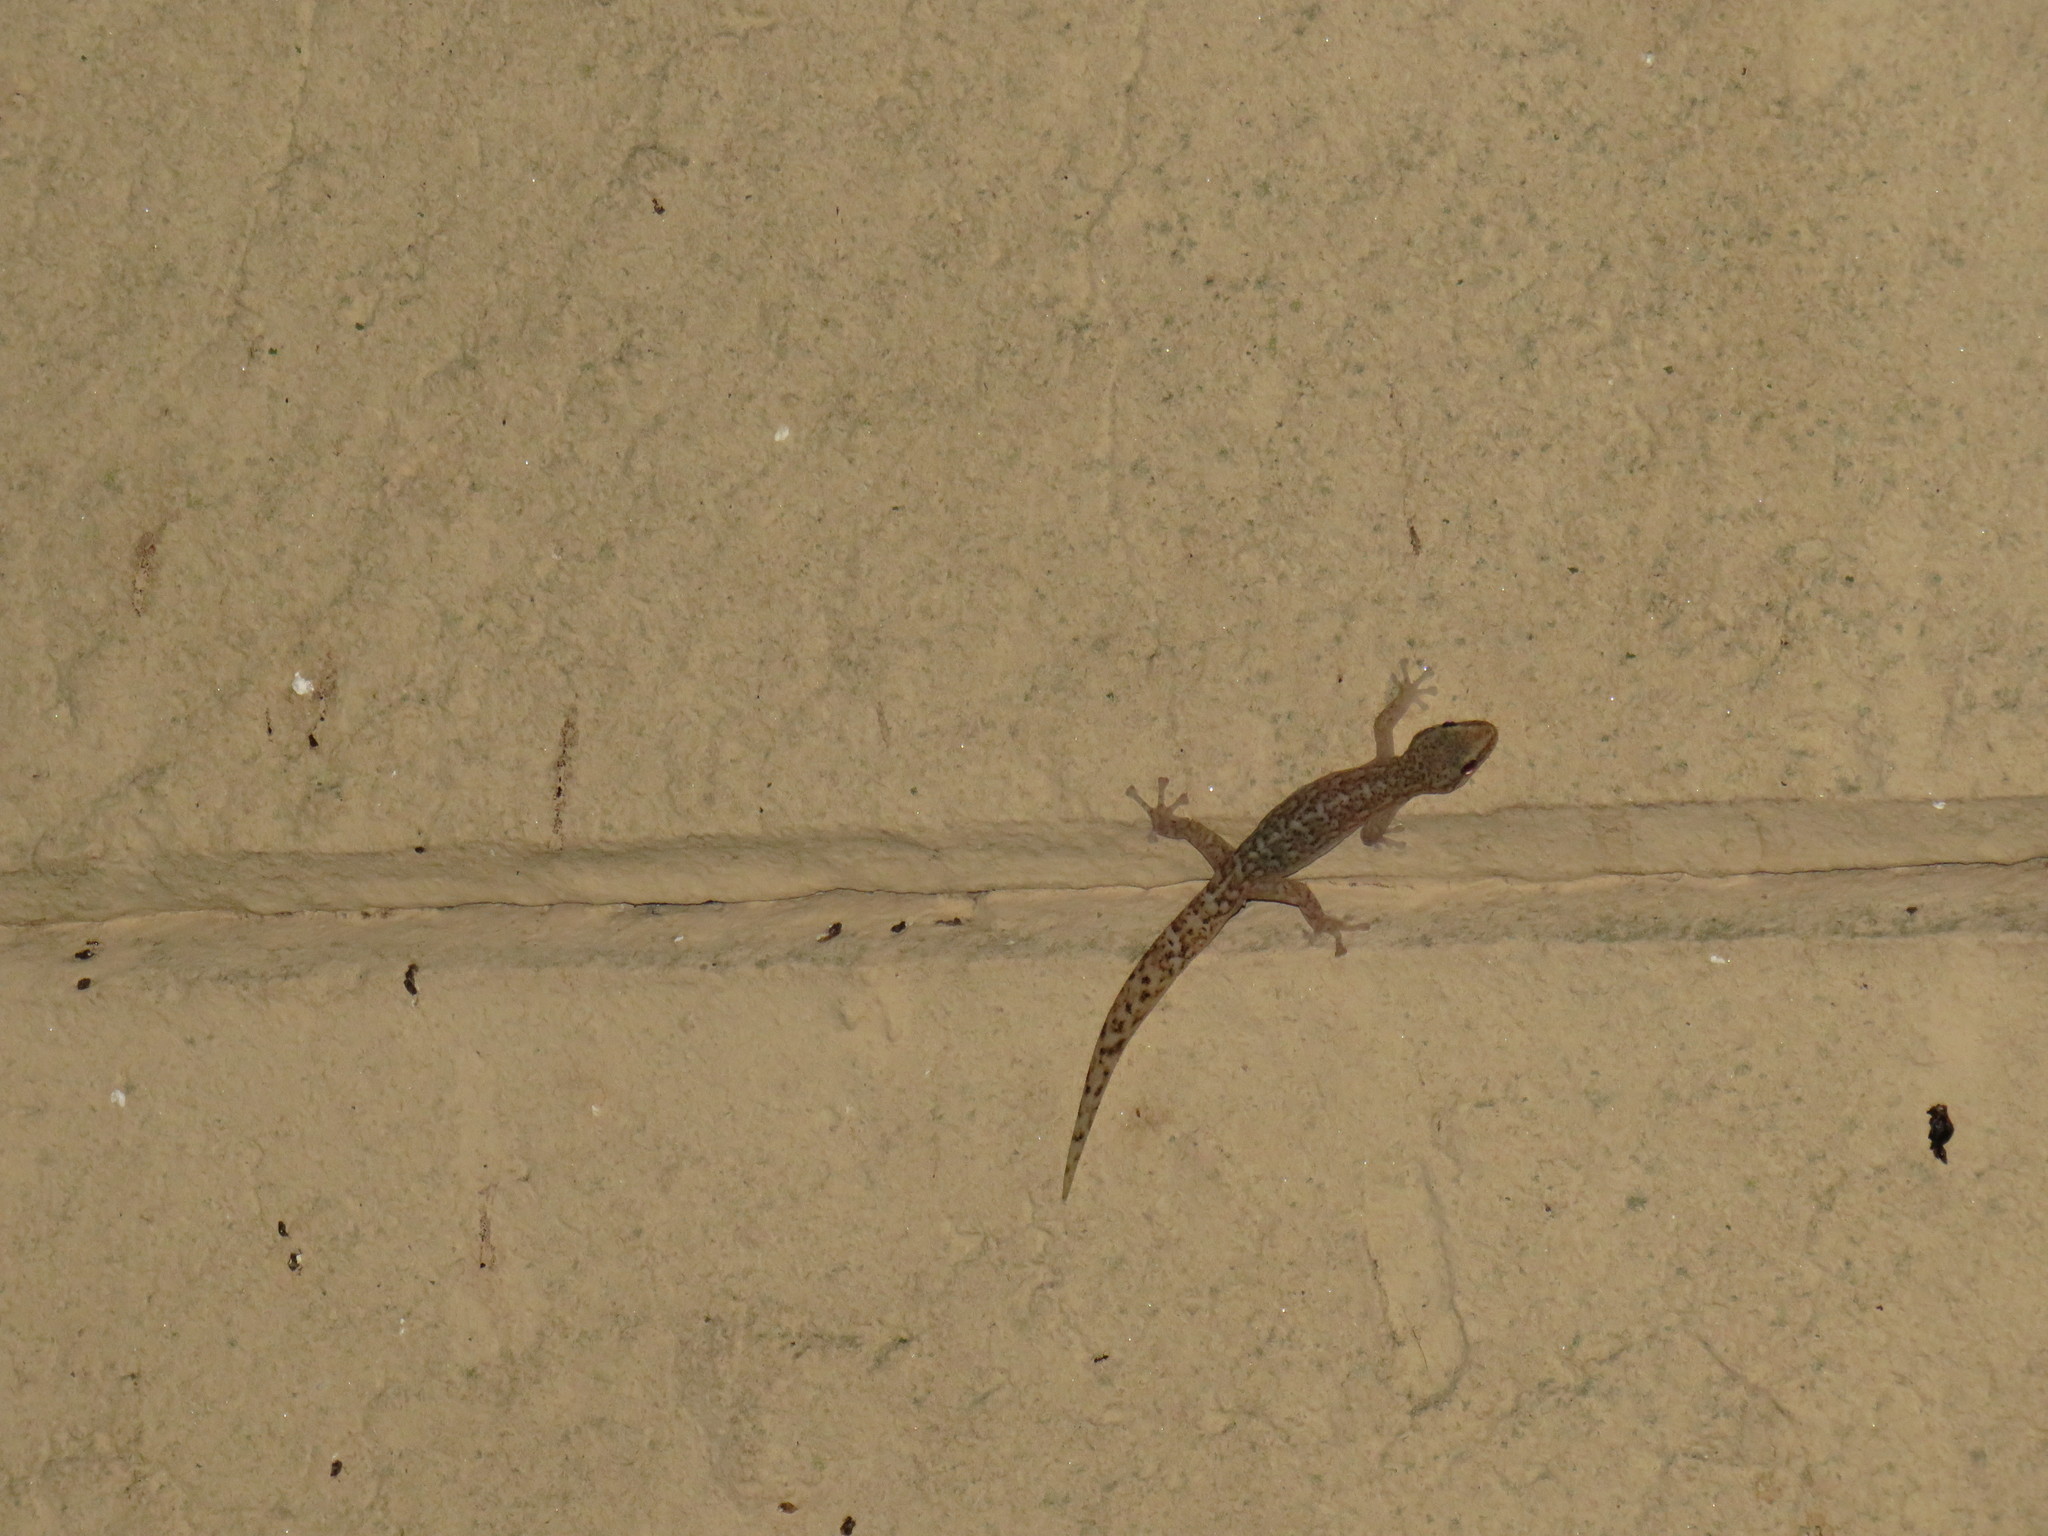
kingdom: Animalia
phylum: Chordata
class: Squamata
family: Gekkonidae
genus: Afrogecko
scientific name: Afrogecko porphyreus
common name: Marbled leaf-toed gecko
